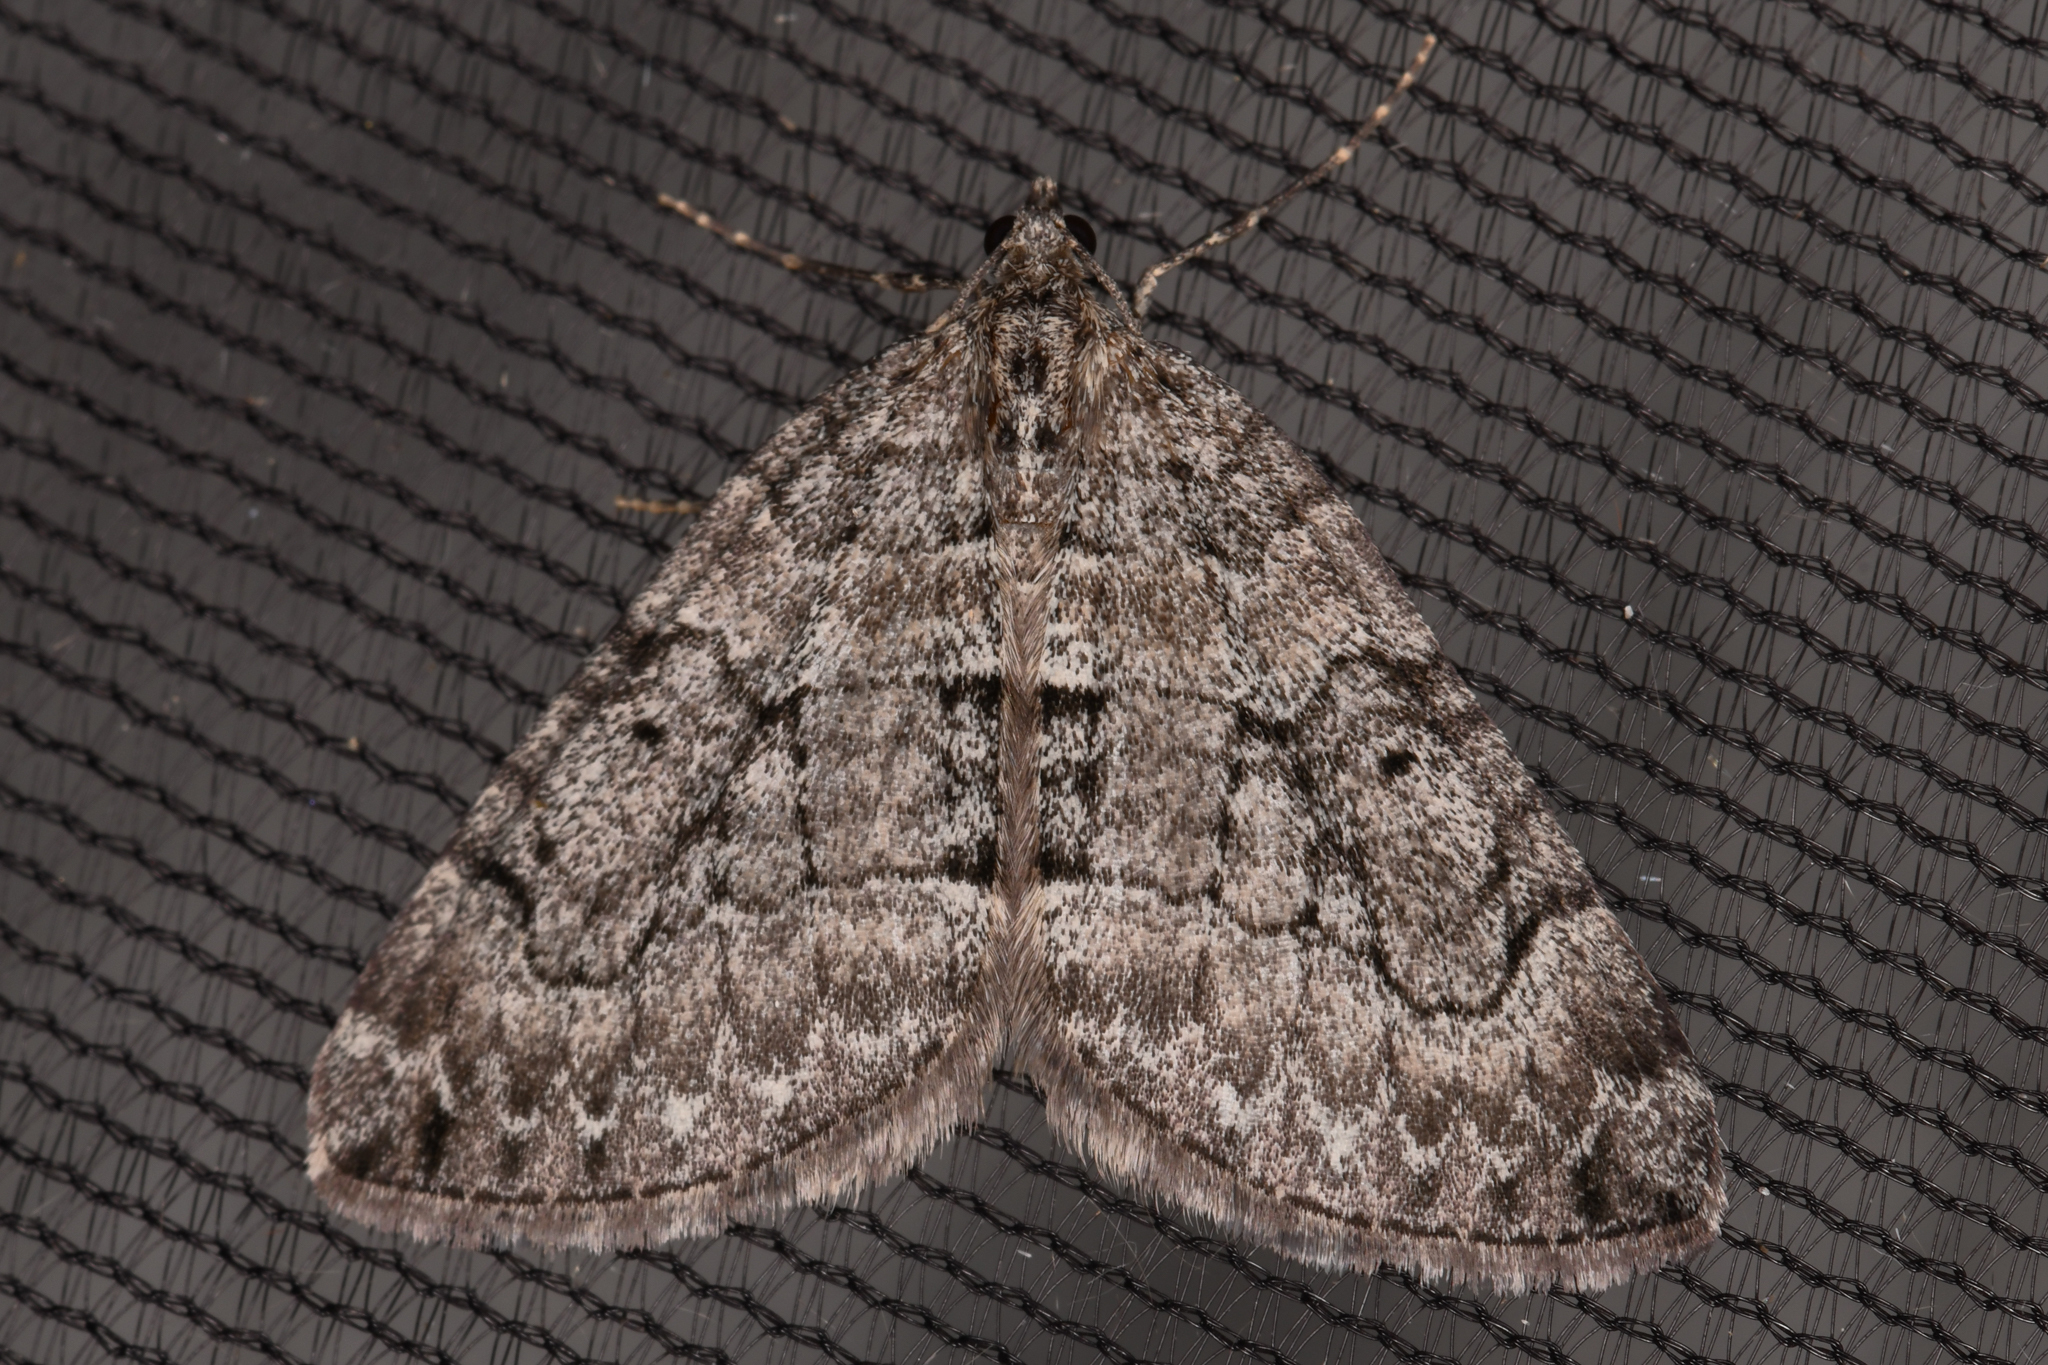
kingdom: Animalia
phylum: Arthropoda
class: Insecta
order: Lepidoptera
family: Geometridae
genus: Thera
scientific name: Thera otisi
